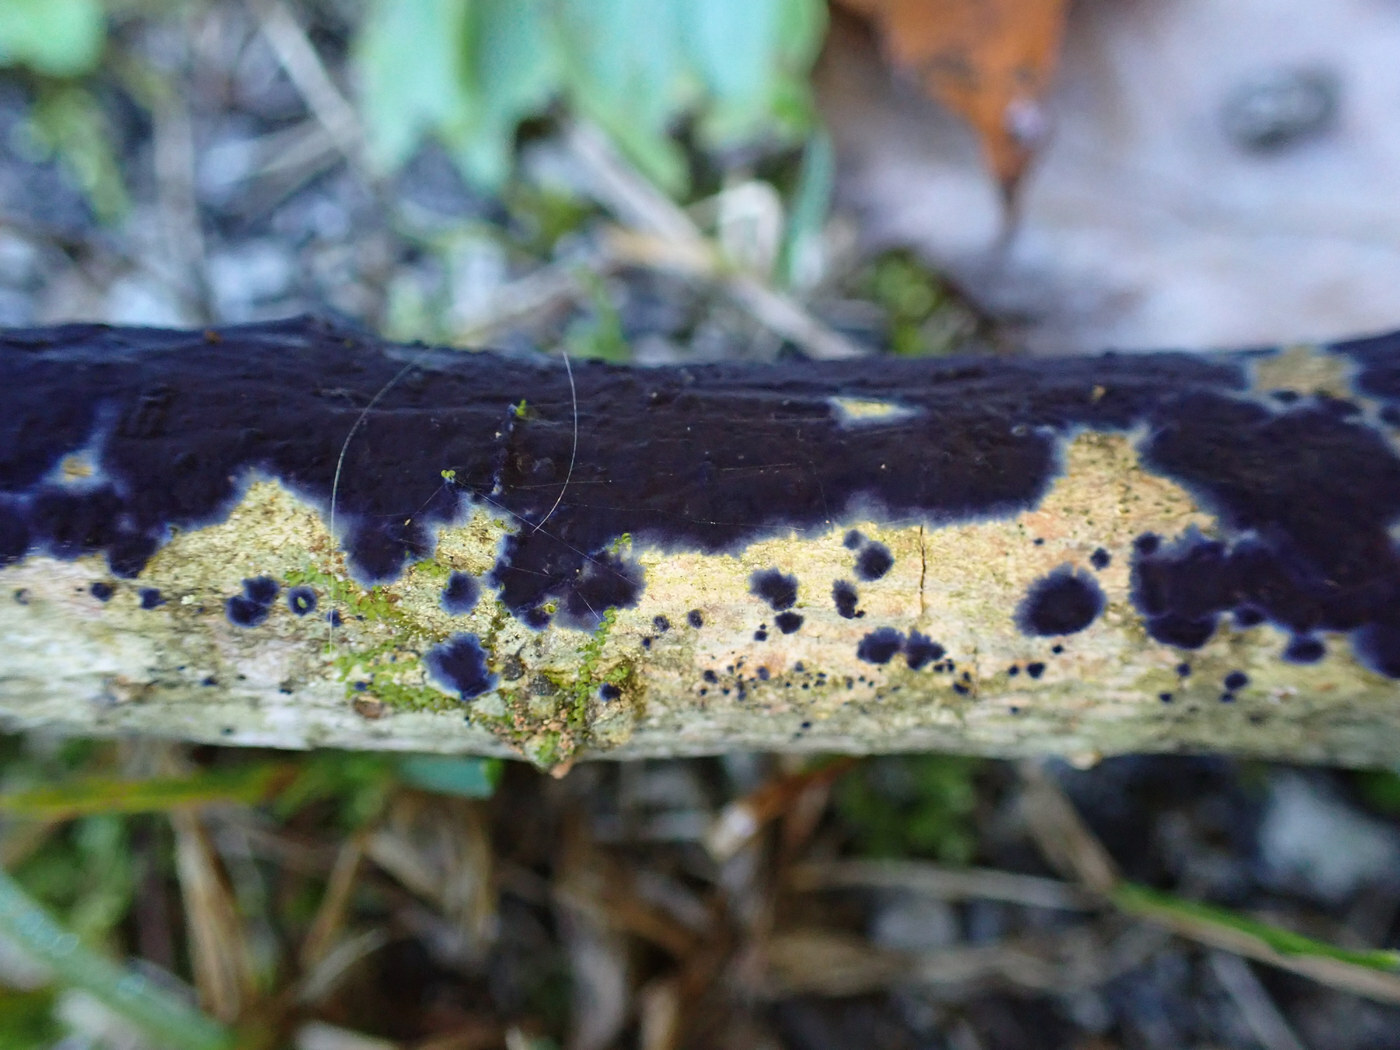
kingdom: Fungi
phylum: Basidiomycota
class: Agaricomycetes
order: Polyporales
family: Phanerochaetaceae
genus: Terana
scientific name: Terana coerulea
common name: Cobalt crust
